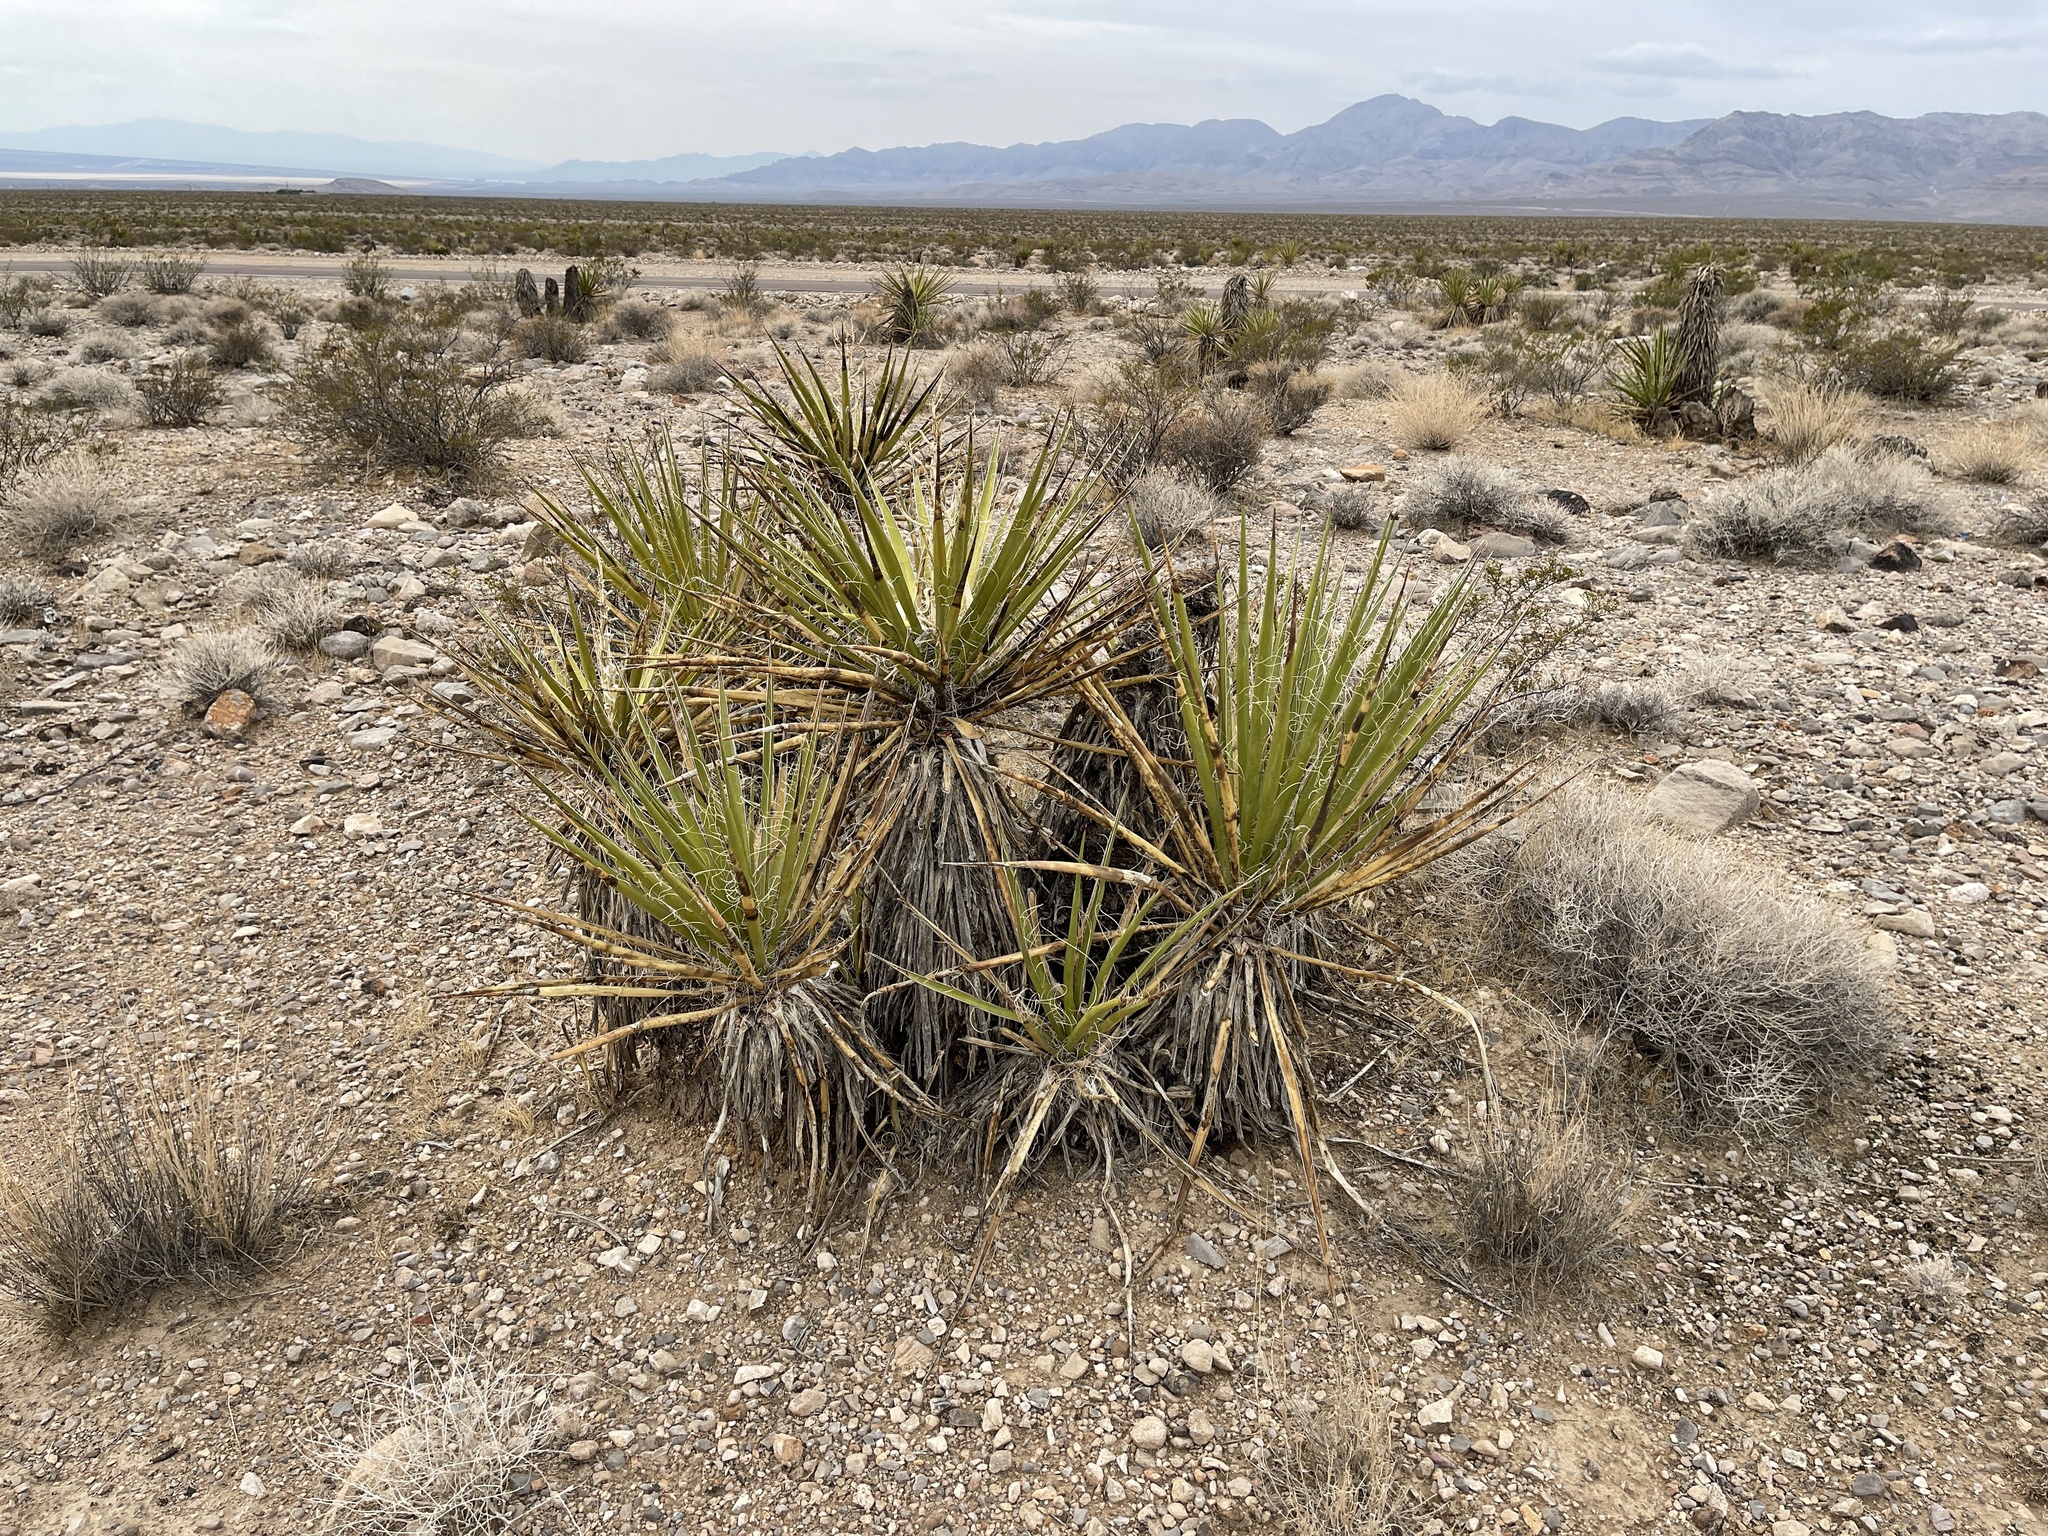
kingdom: Plantae
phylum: Tracheophyta
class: Liliopsida
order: Asparagales
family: Asparagaceae
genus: Yucca
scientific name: Yucca schidigera
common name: Mojave yucca
